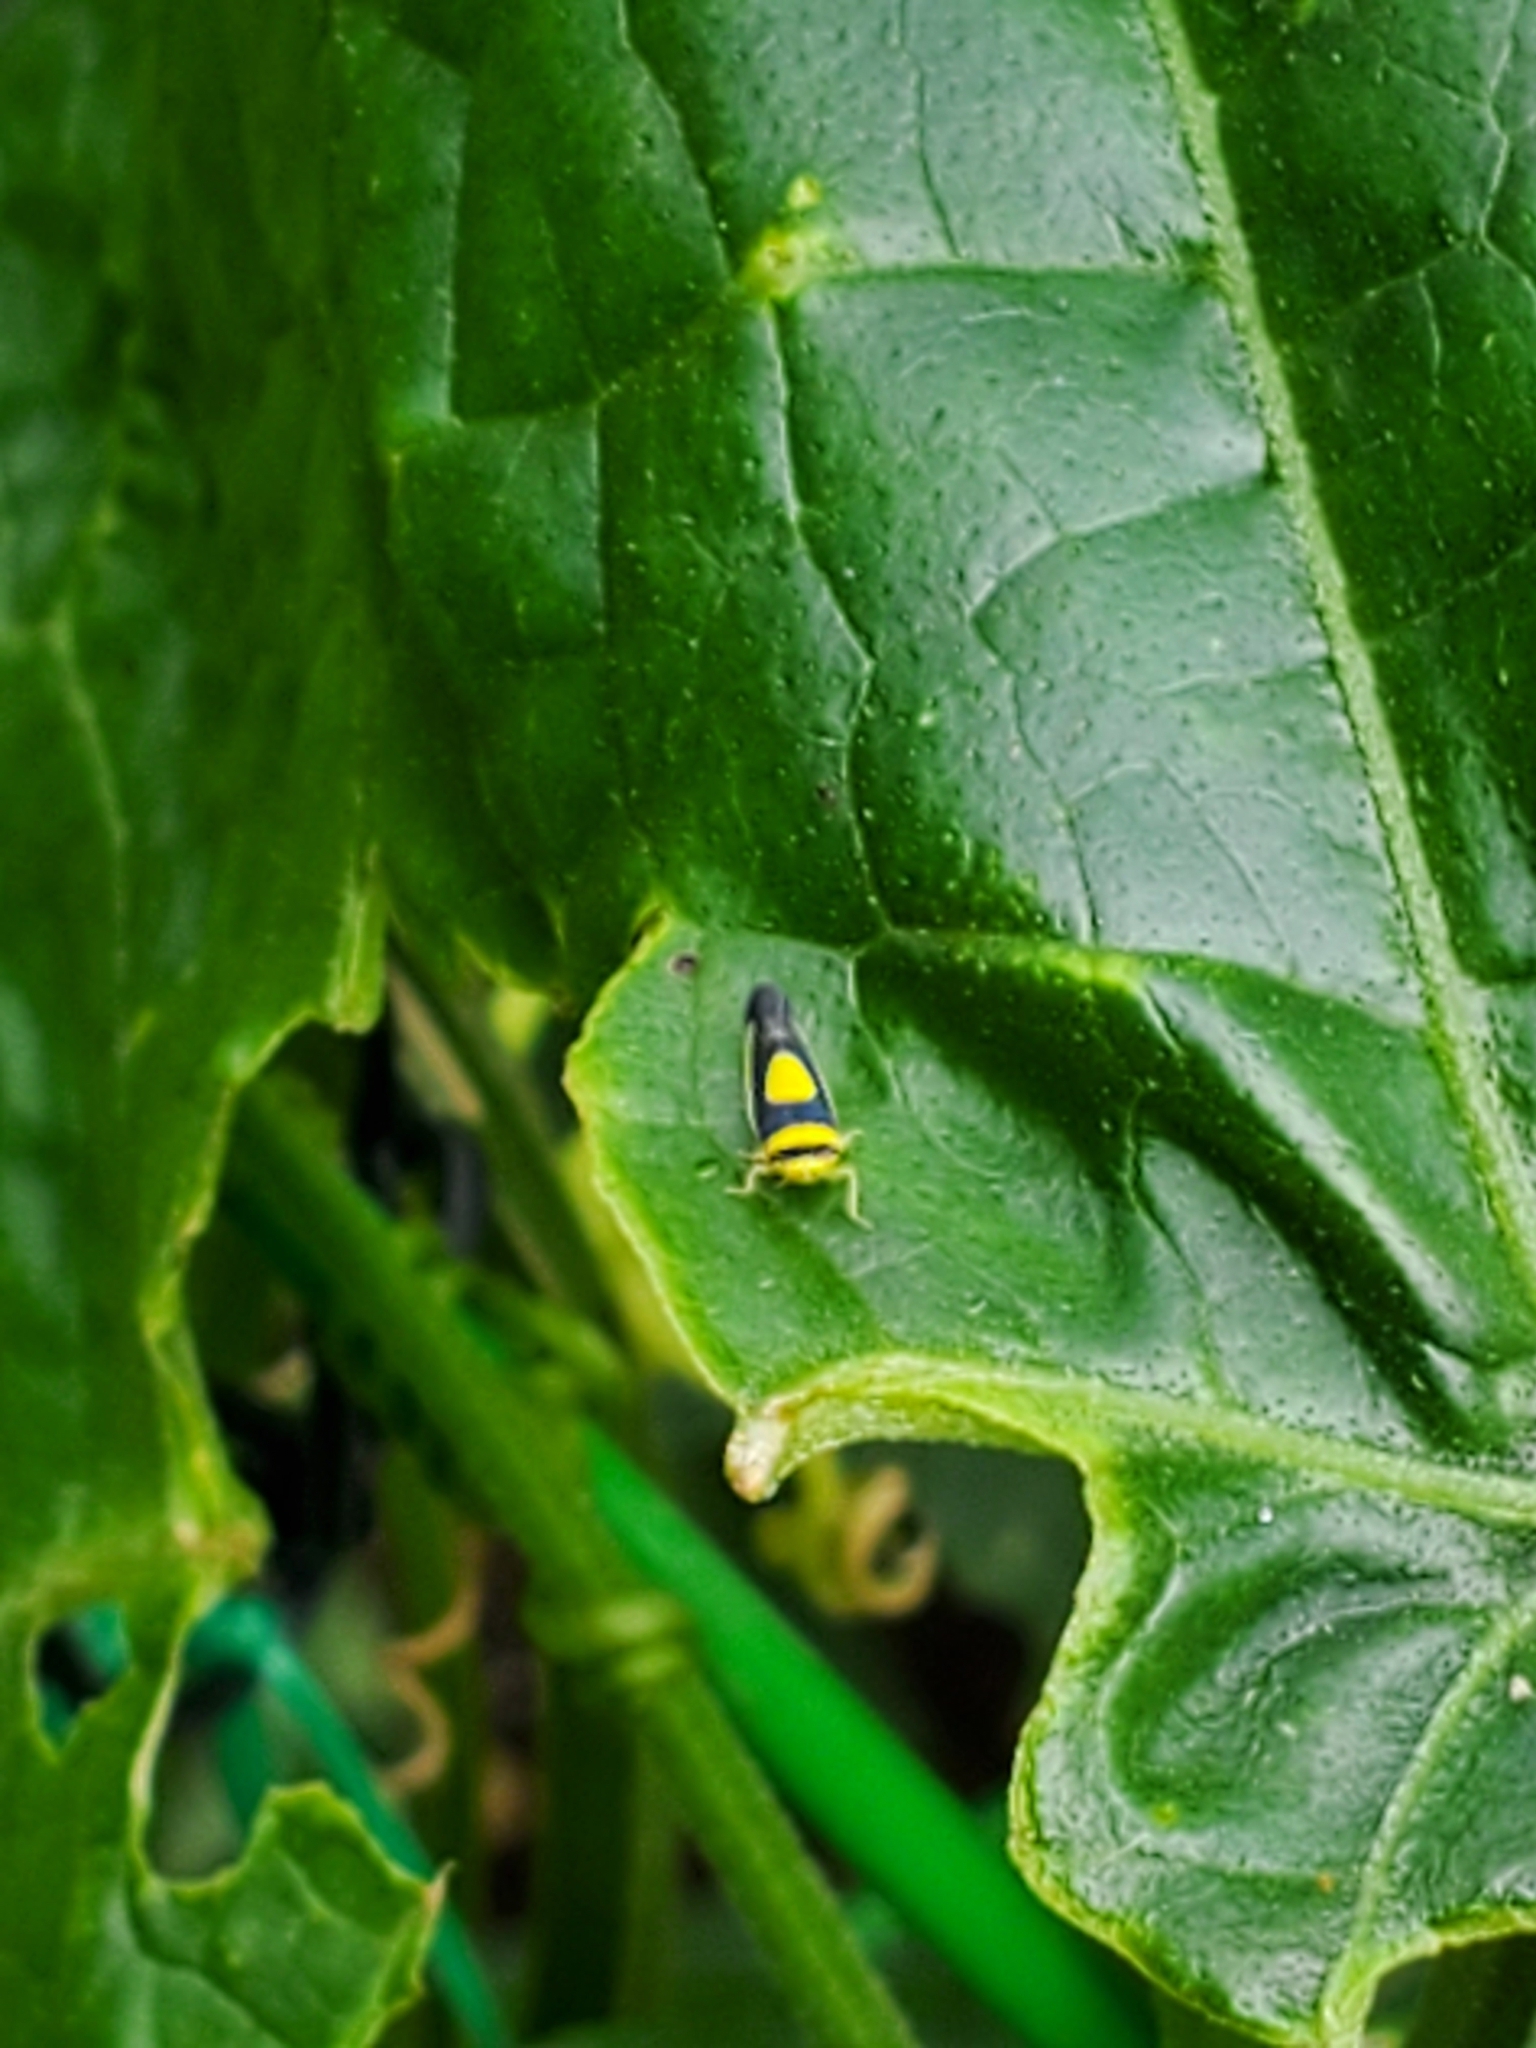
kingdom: Animalia
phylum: Arthropoda
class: Insecta
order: Hemiptera
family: Cicadellidae
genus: Colladonus
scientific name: Colladonus clitellarius
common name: The saddleback leafhopper
